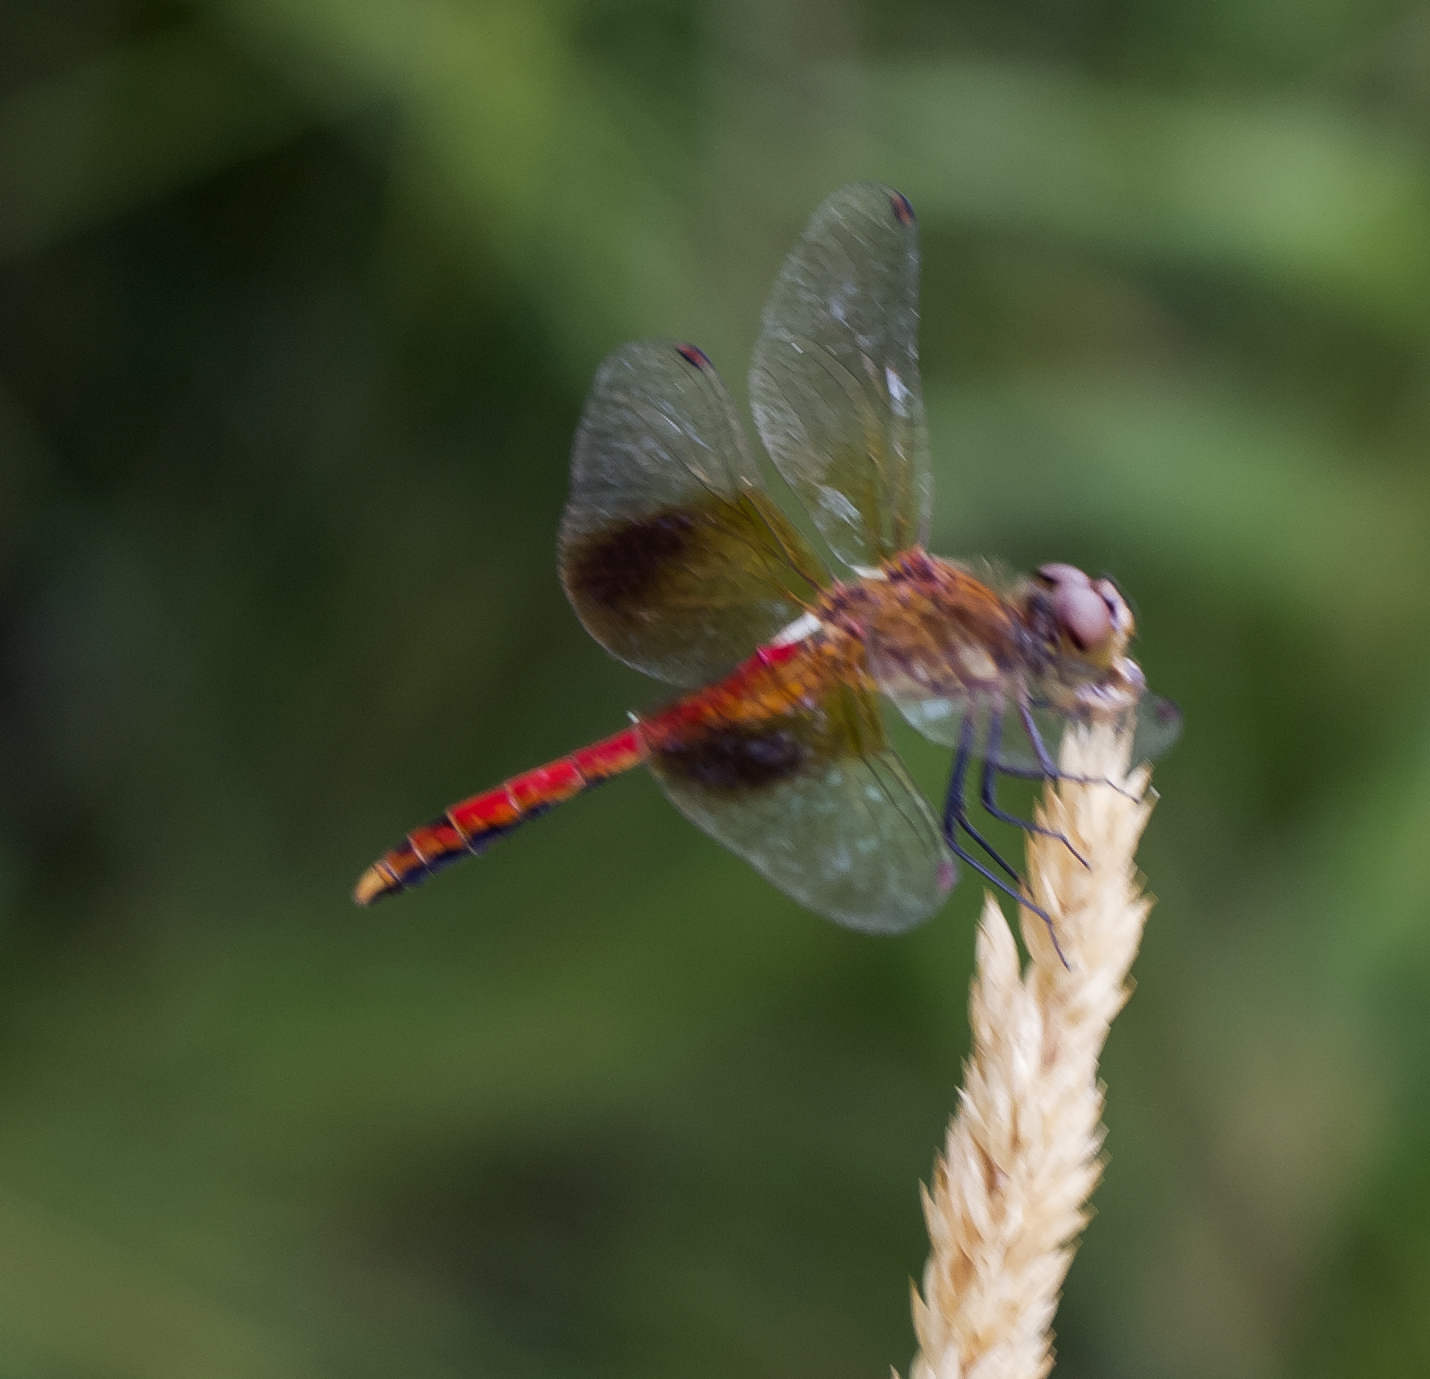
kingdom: Animalia
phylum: Arthropoda
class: Insecta
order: Odonata
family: Libellulidae
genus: Sympetrum
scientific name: Sympetrum semicinctum
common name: Band-winged meadowhawk
